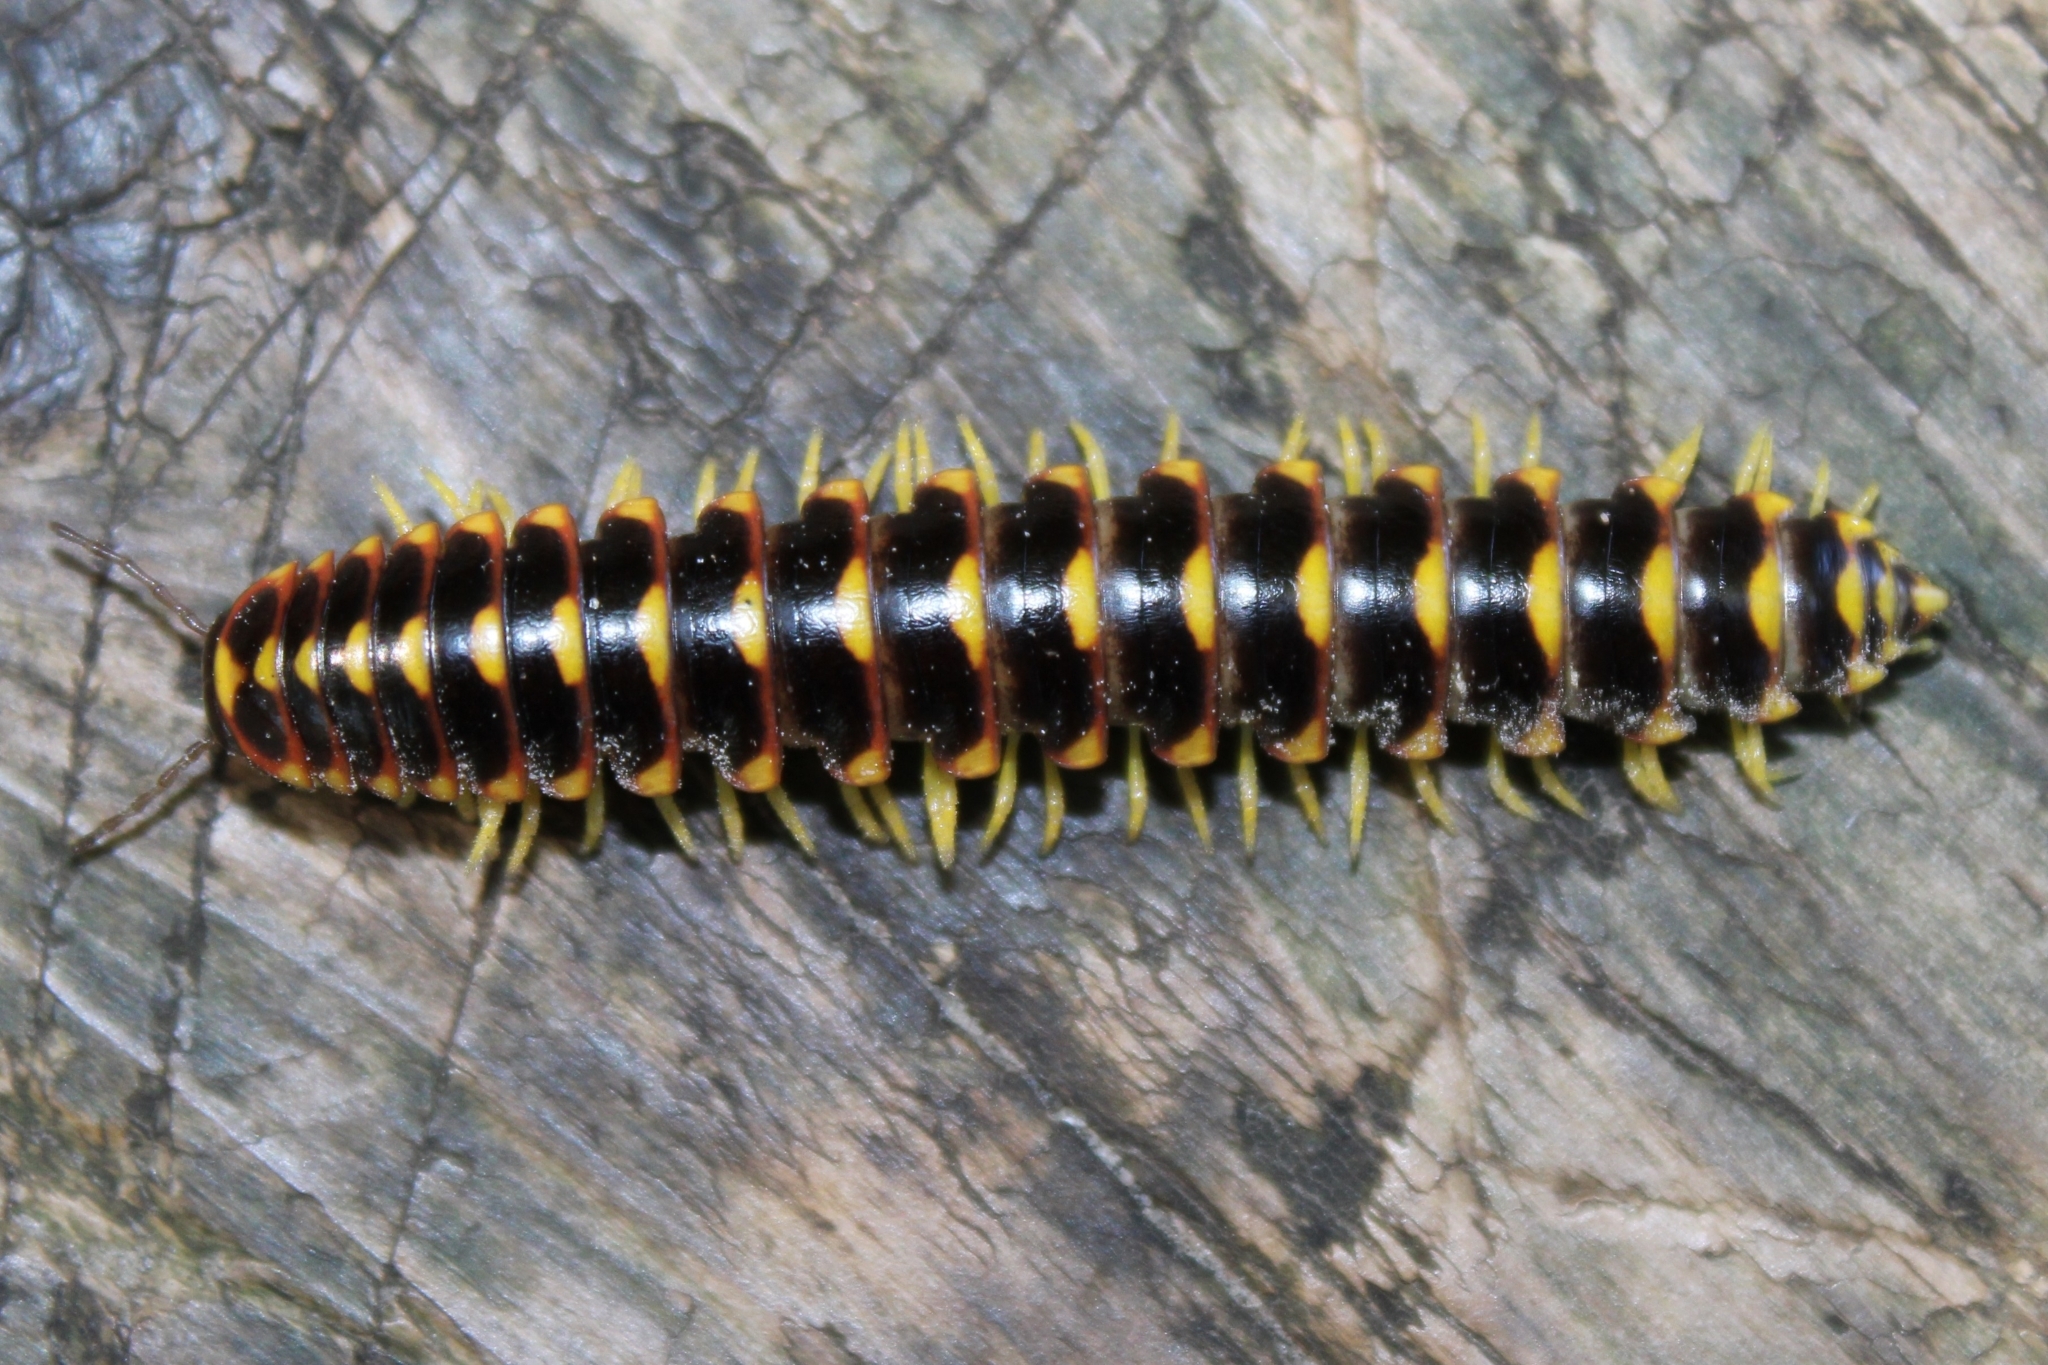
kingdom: Animalia
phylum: Arthropoda
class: Diplopoda
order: Polydesmida
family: Xystodesmidae
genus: Rudiloria
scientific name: Rudiloria trimaculata
